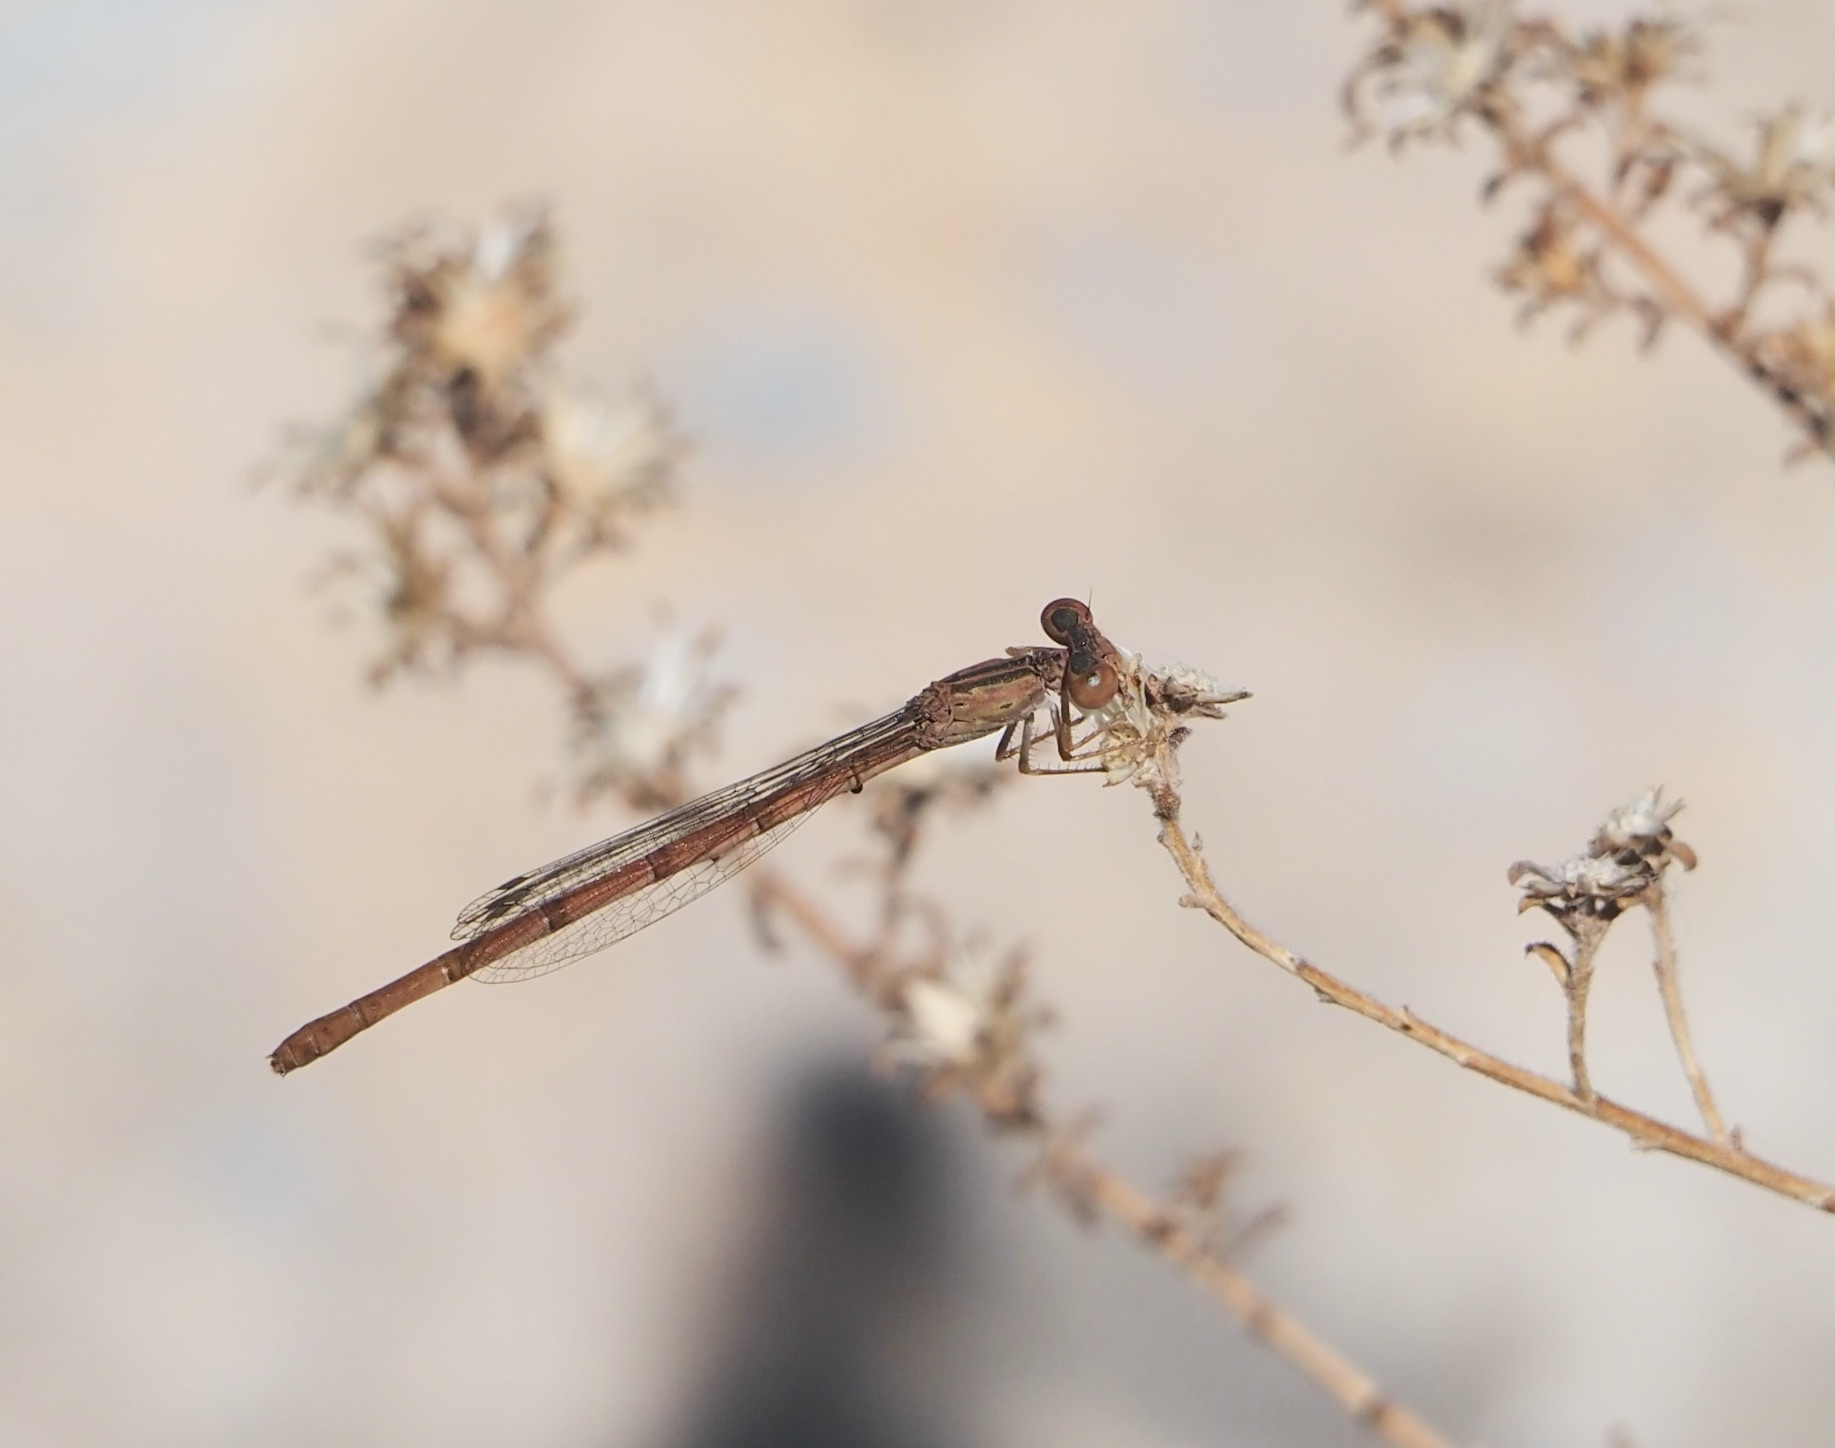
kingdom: Animalia
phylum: Arthropoda
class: Insecta
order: Odonata
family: Coenagrionidae
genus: Telebasis
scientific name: Telebasis salva
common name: Desert firetail
